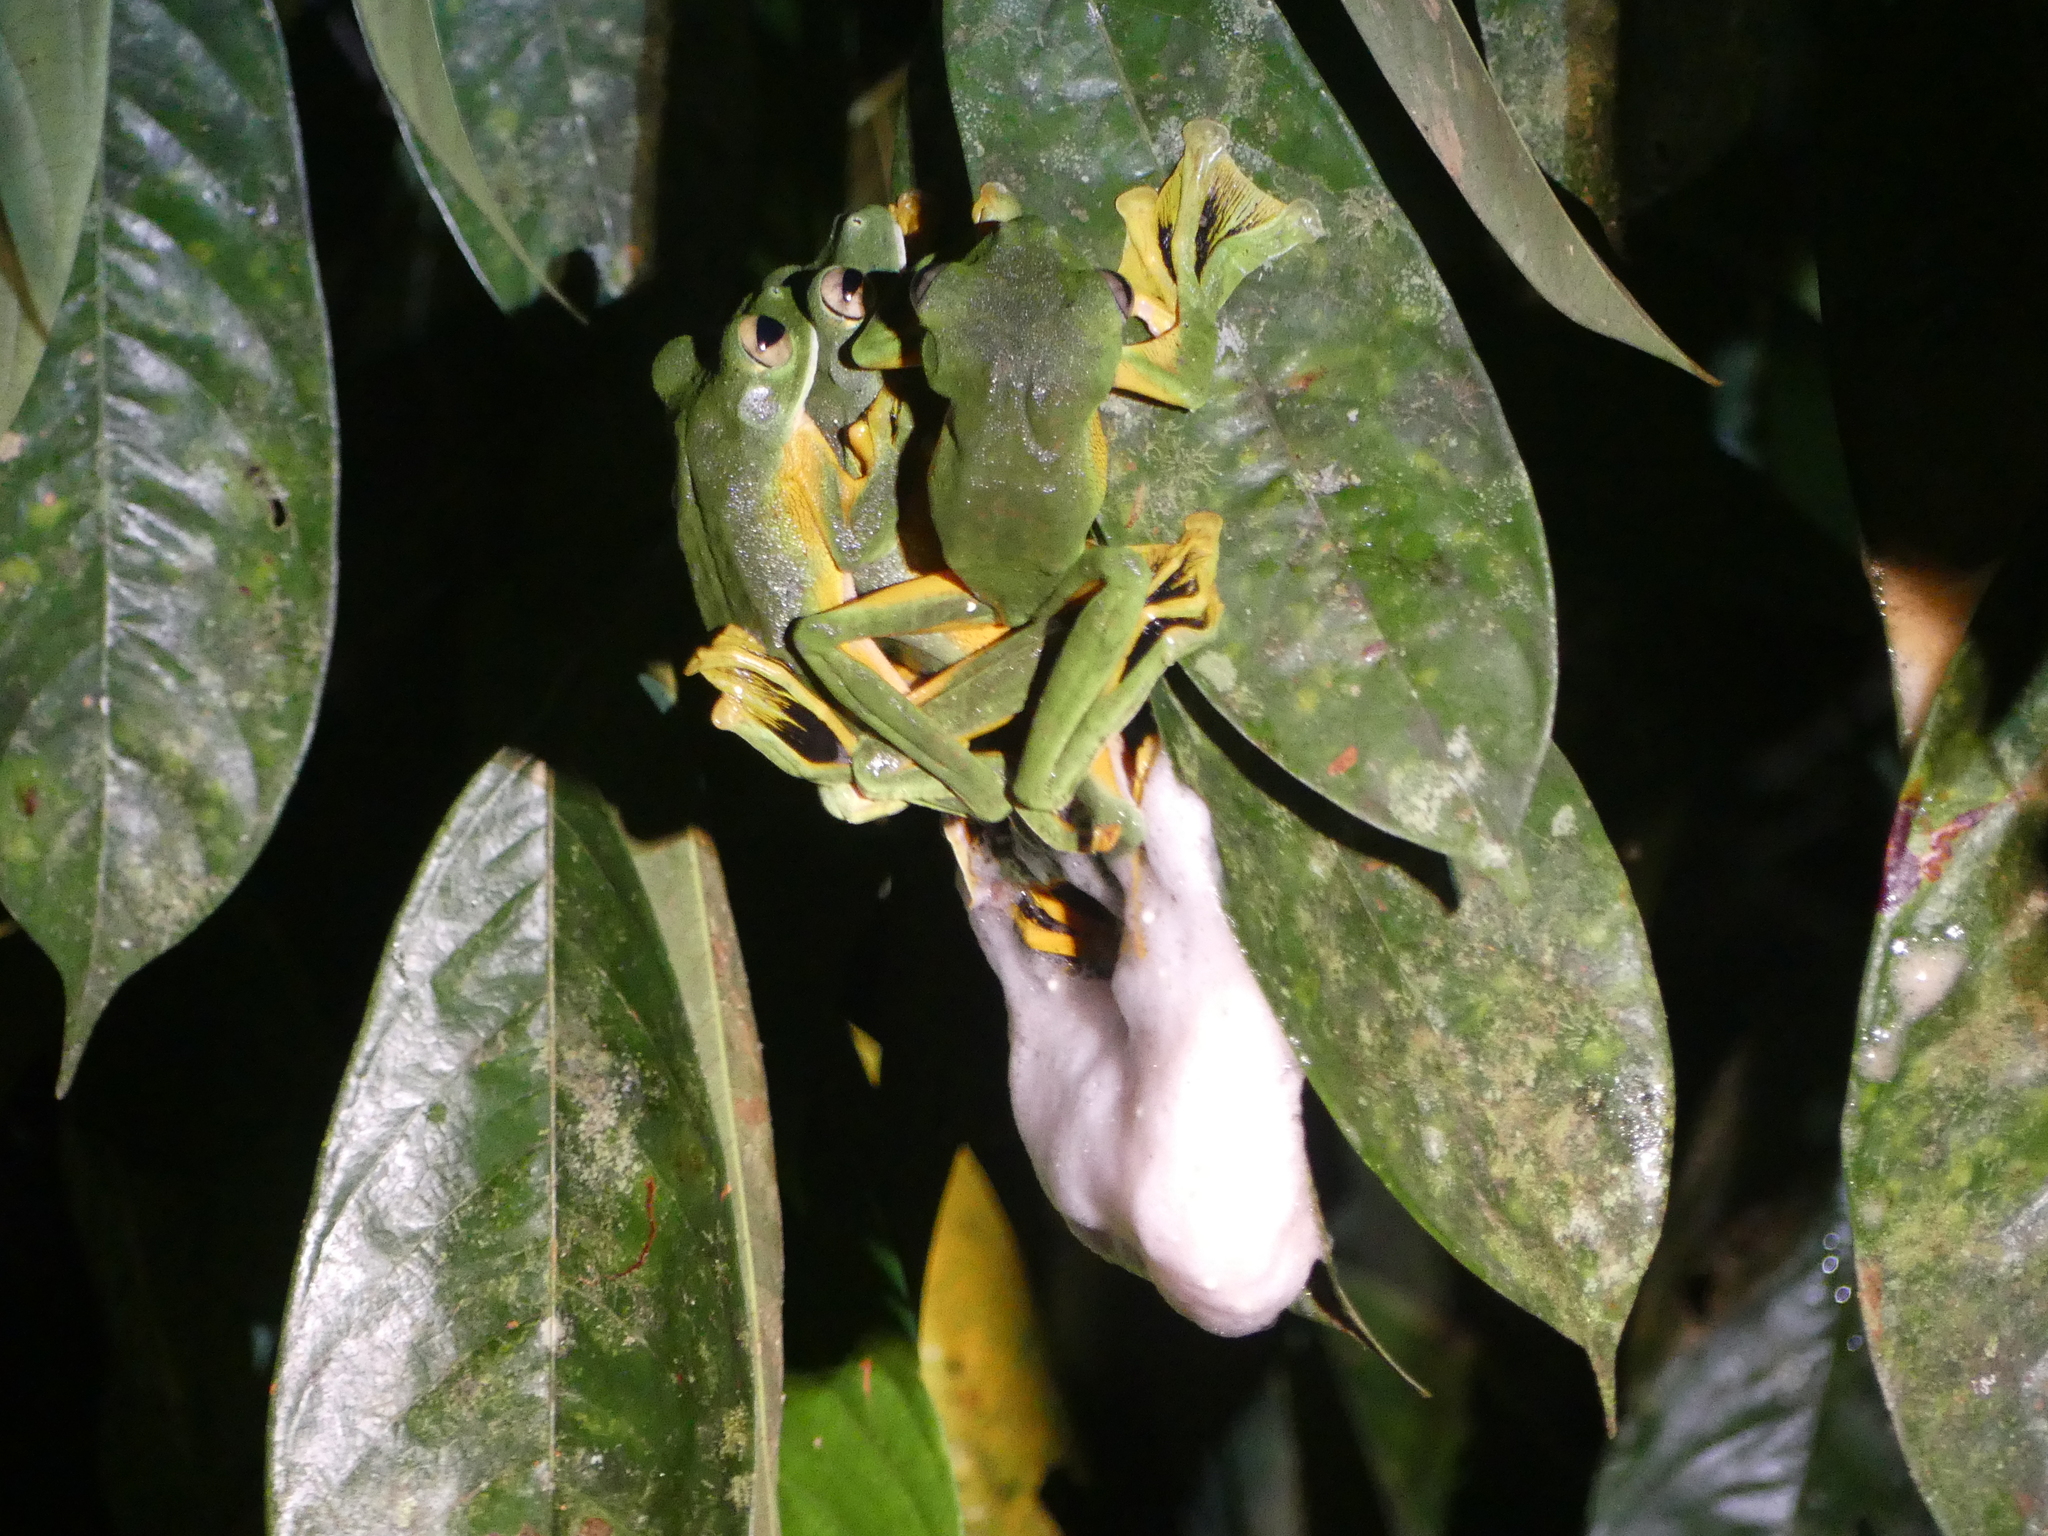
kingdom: Animalia
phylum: Chordata
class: Amphibia
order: Anura
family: Rhacophoridae
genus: Rhacophorus
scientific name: Rhacophorus nigropalmatus
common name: Wallace’s flying frog
